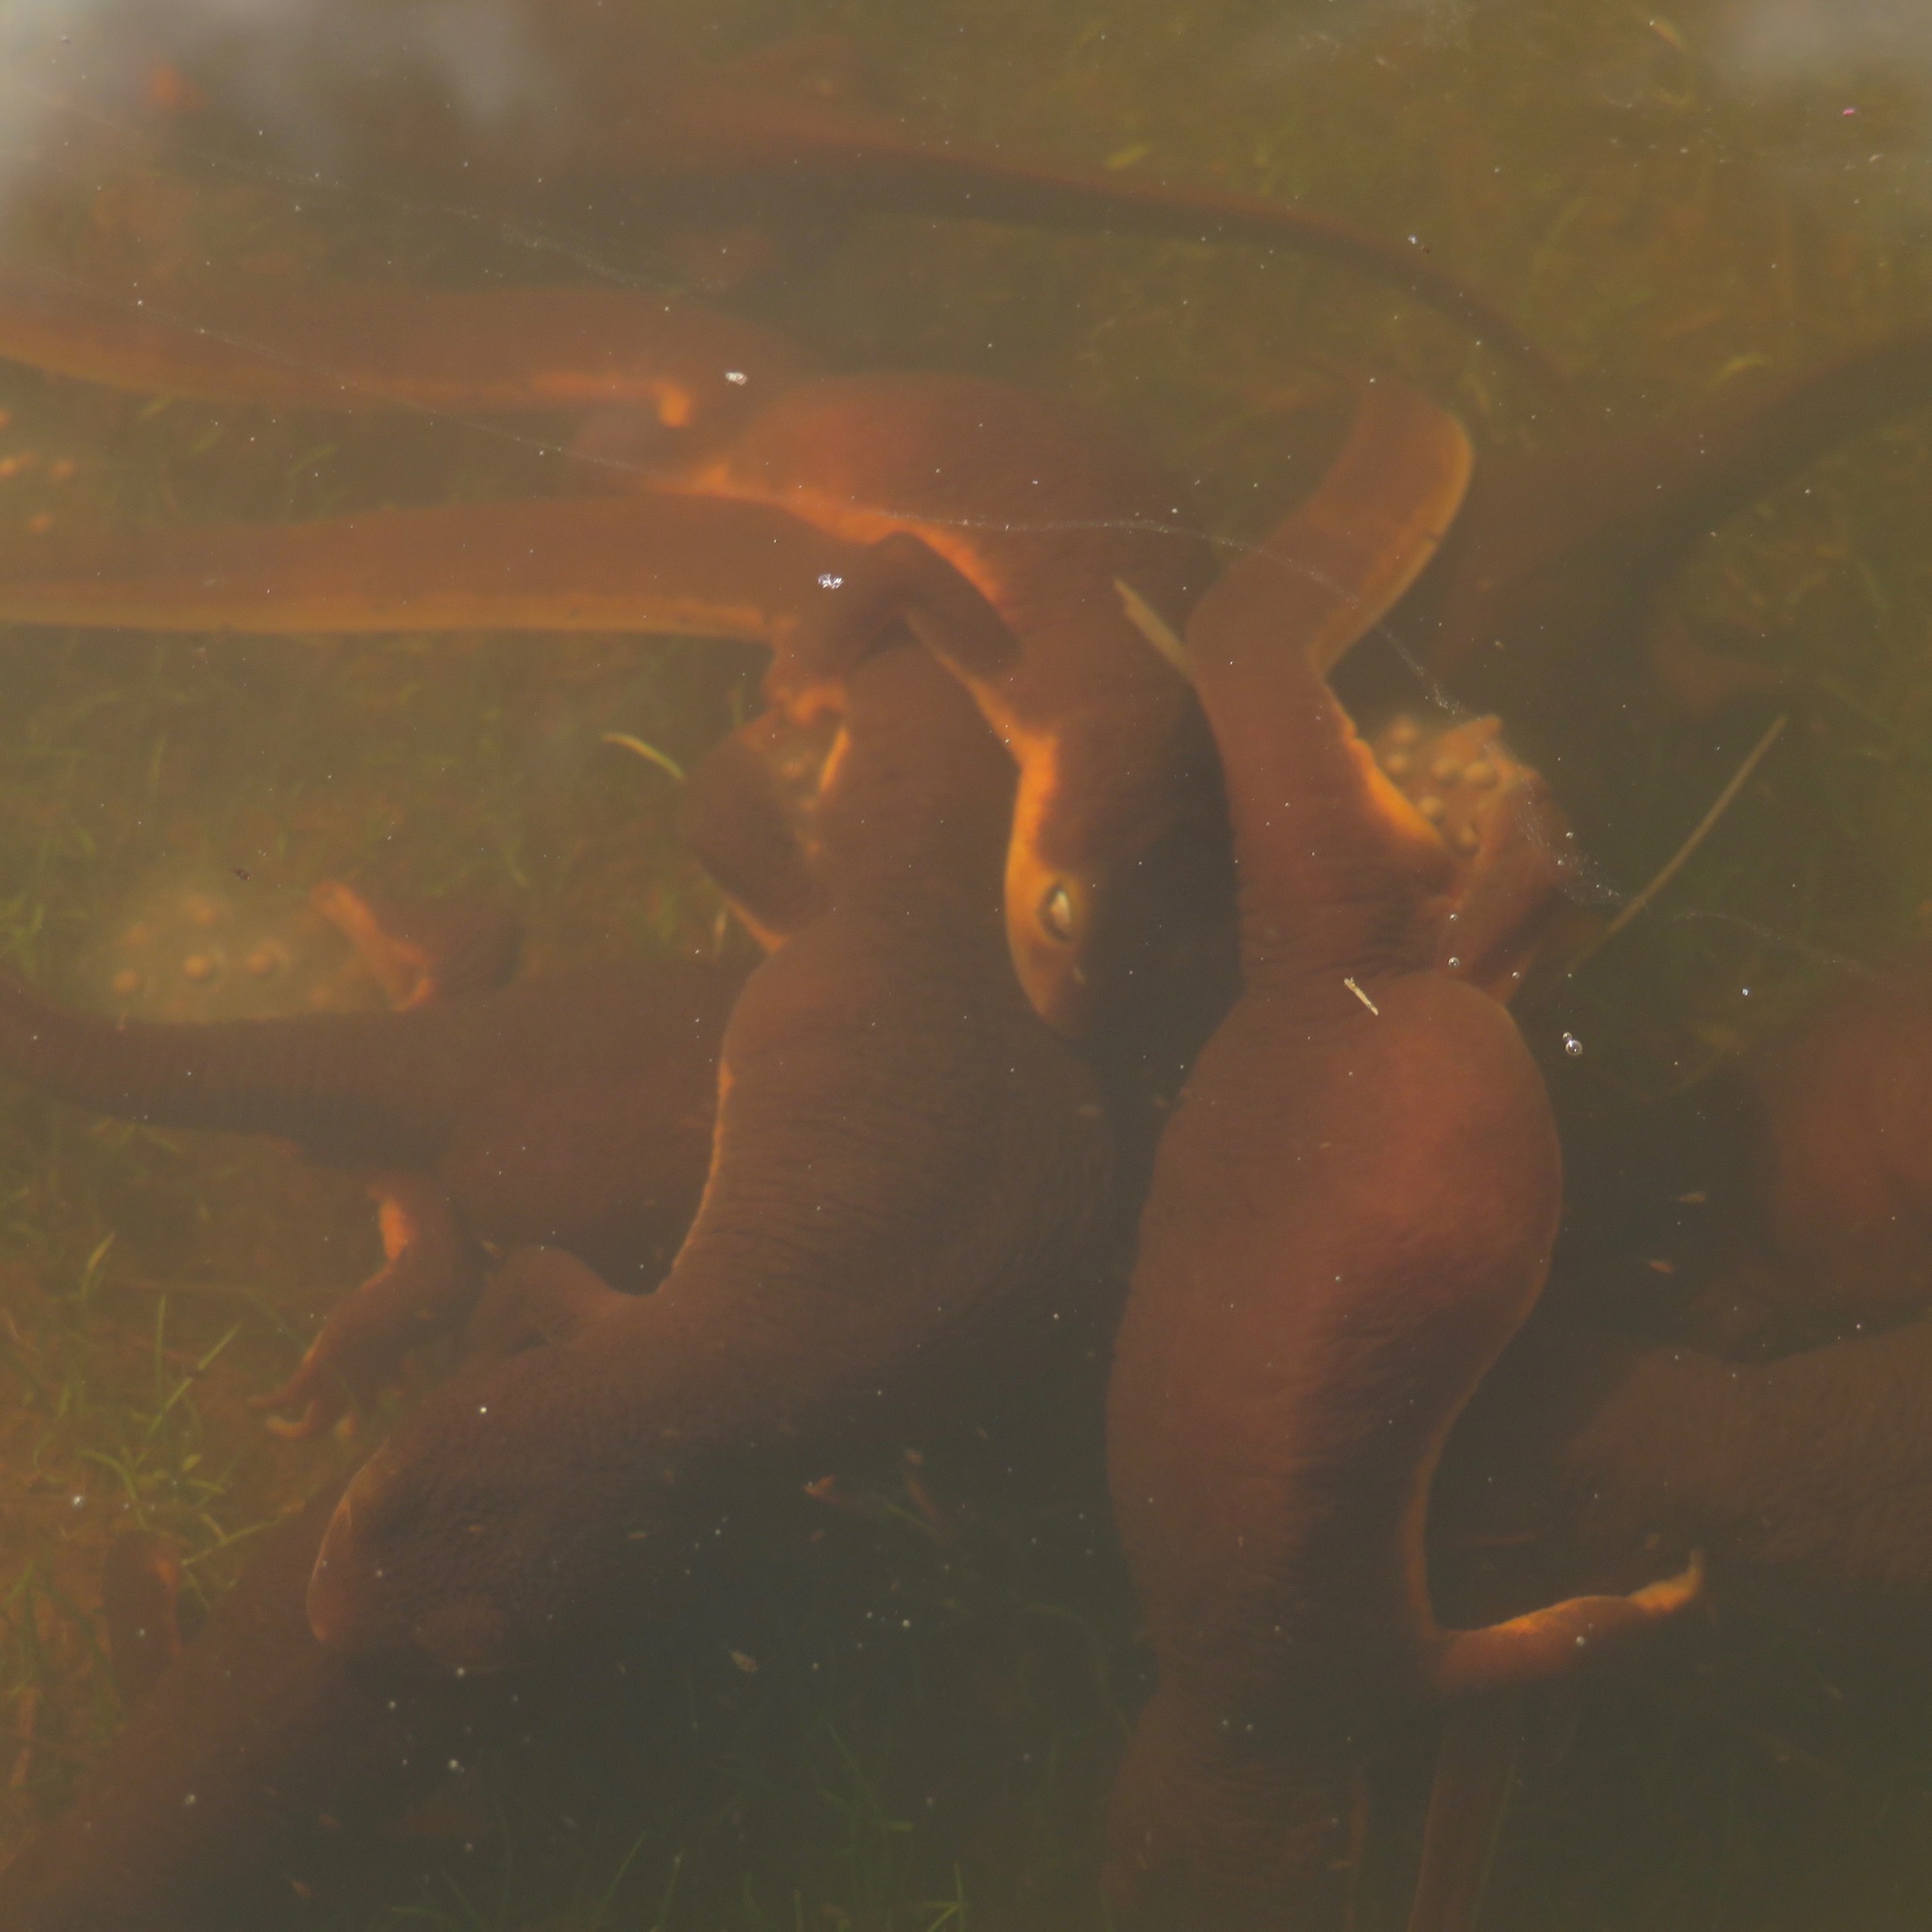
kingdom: Animalia
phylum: Chordata
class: Amphibia
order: Caudata
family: Salamandridae
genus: Taricha
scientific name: Taricha torosa
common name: California newt
